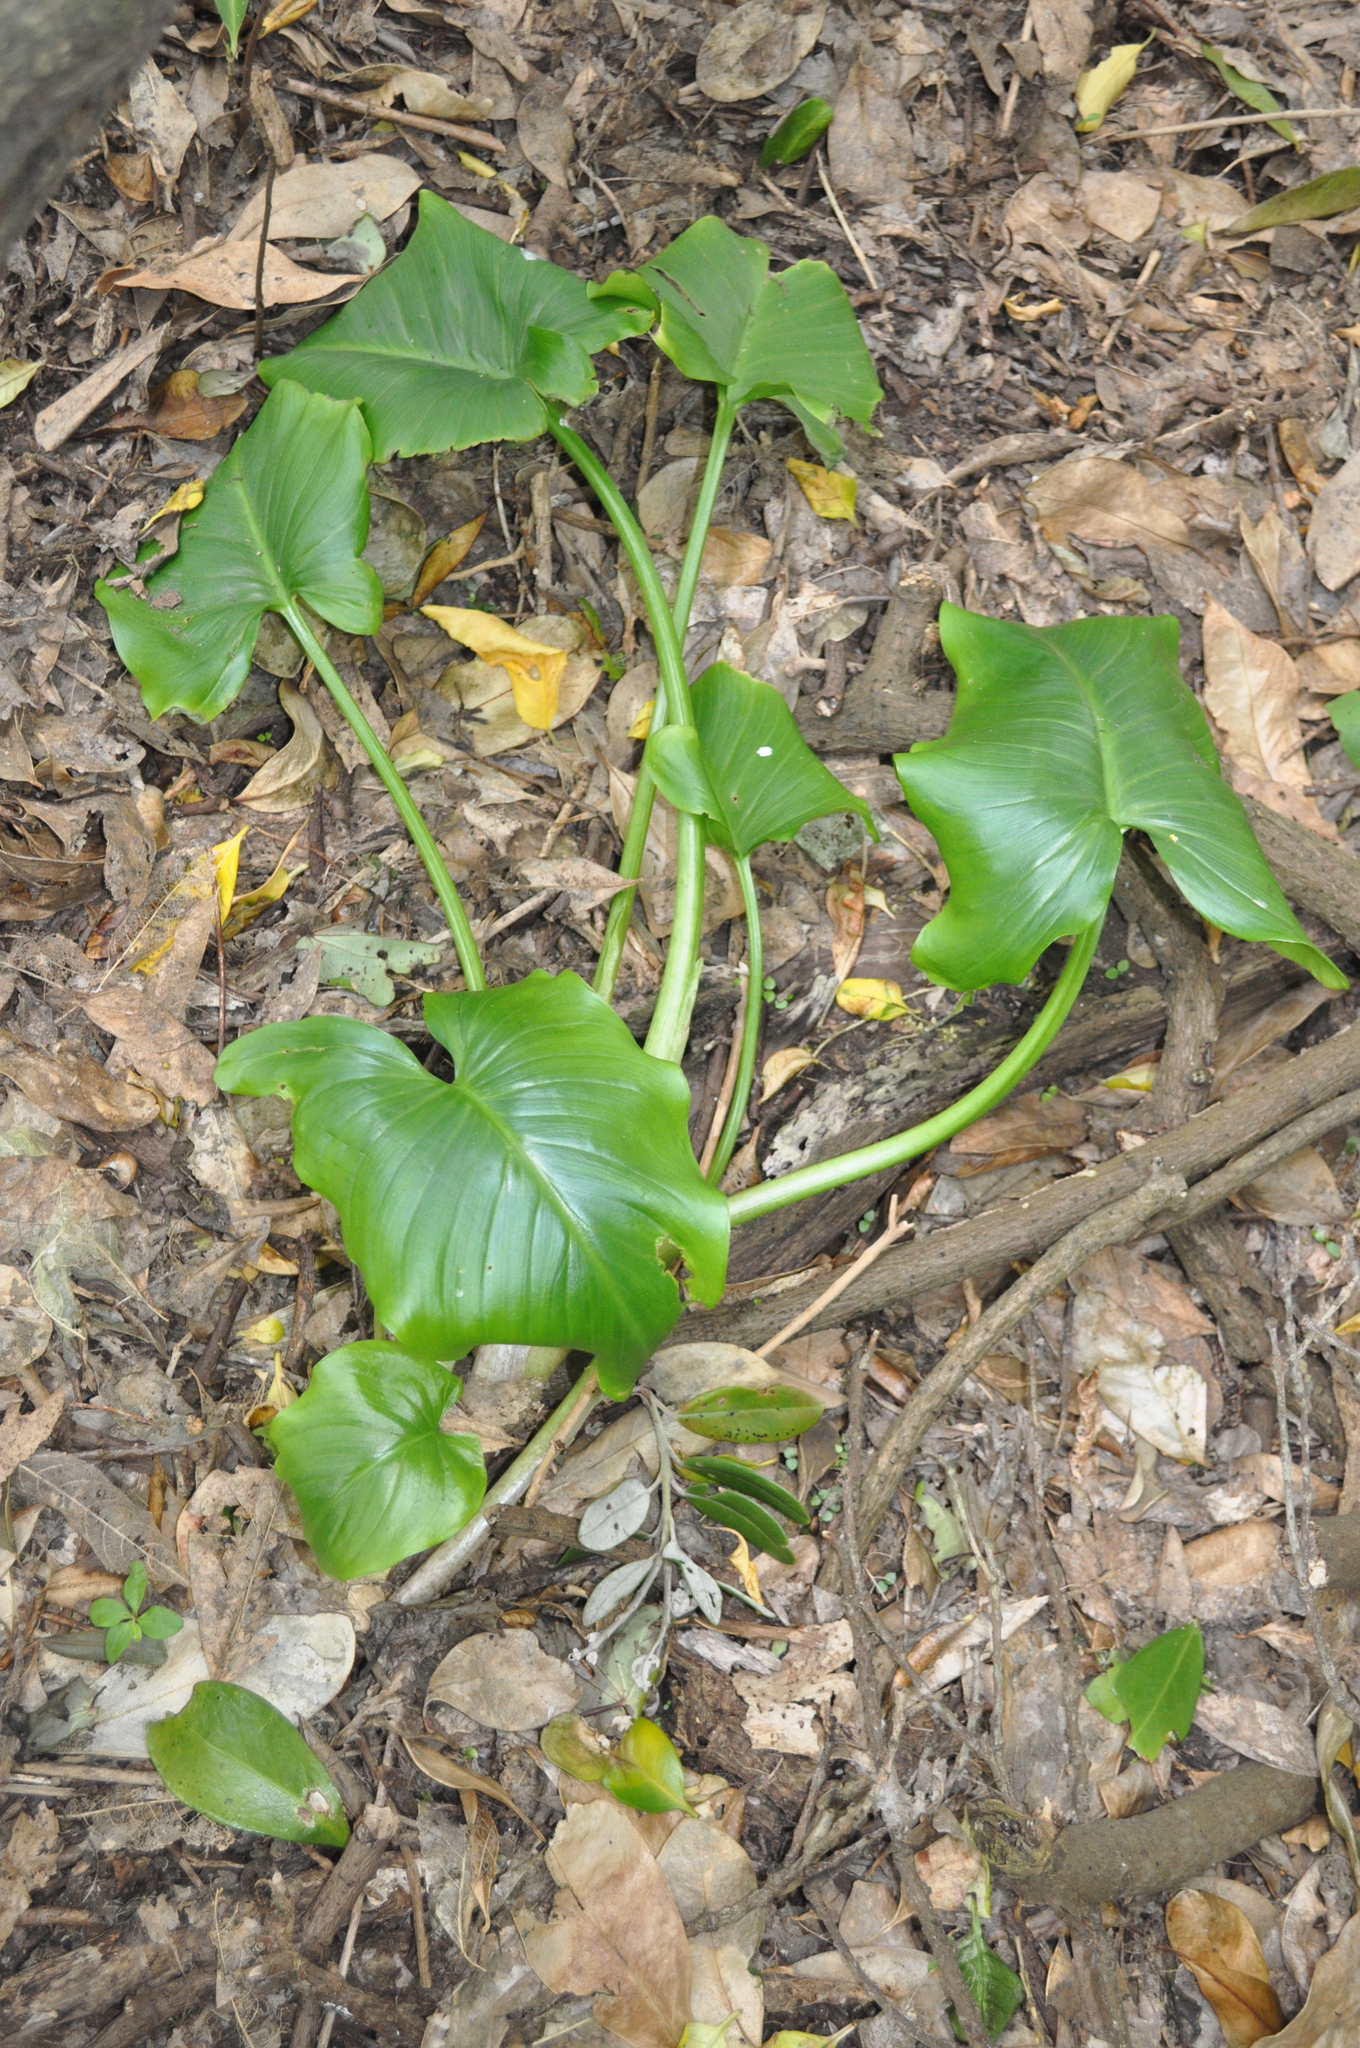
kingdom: Plantae
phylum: Tracheophyta
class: Liliopsida
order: Alismatales
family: Araceae
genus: Zantedeschia
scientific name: Zantedeschia aethiopica
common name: Altar-lily
